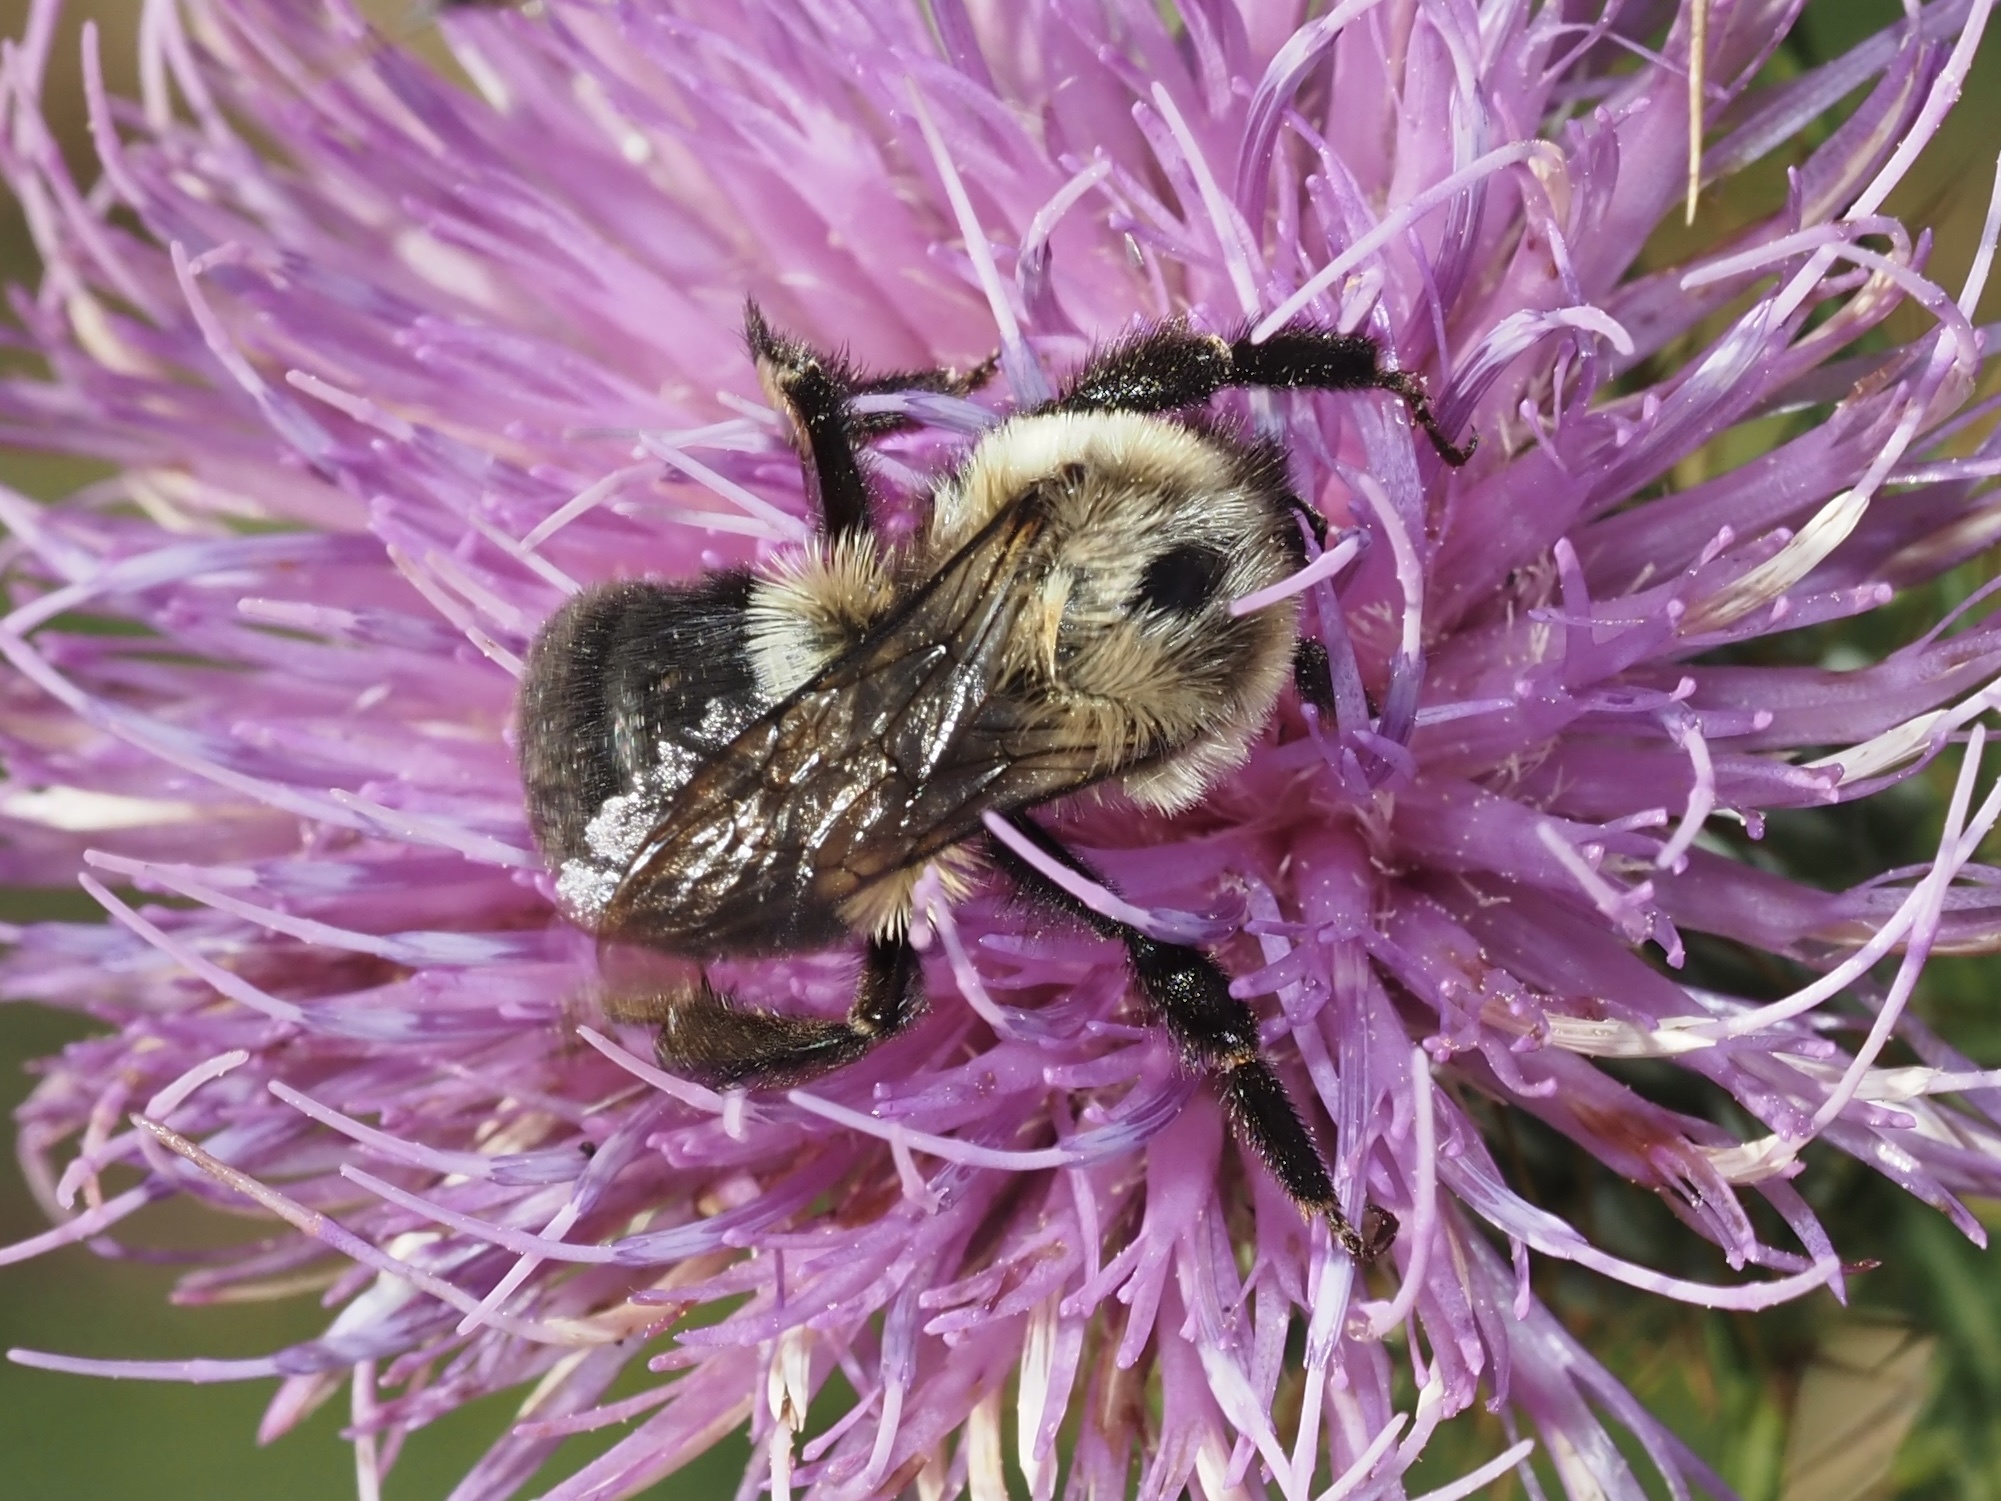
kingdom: Animalia
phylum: Arthropoda
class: Insecta
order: Hymenoptera
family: Apidae
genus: Bombus
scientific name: Bombus impatiens
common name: Common eastern bumble bee
